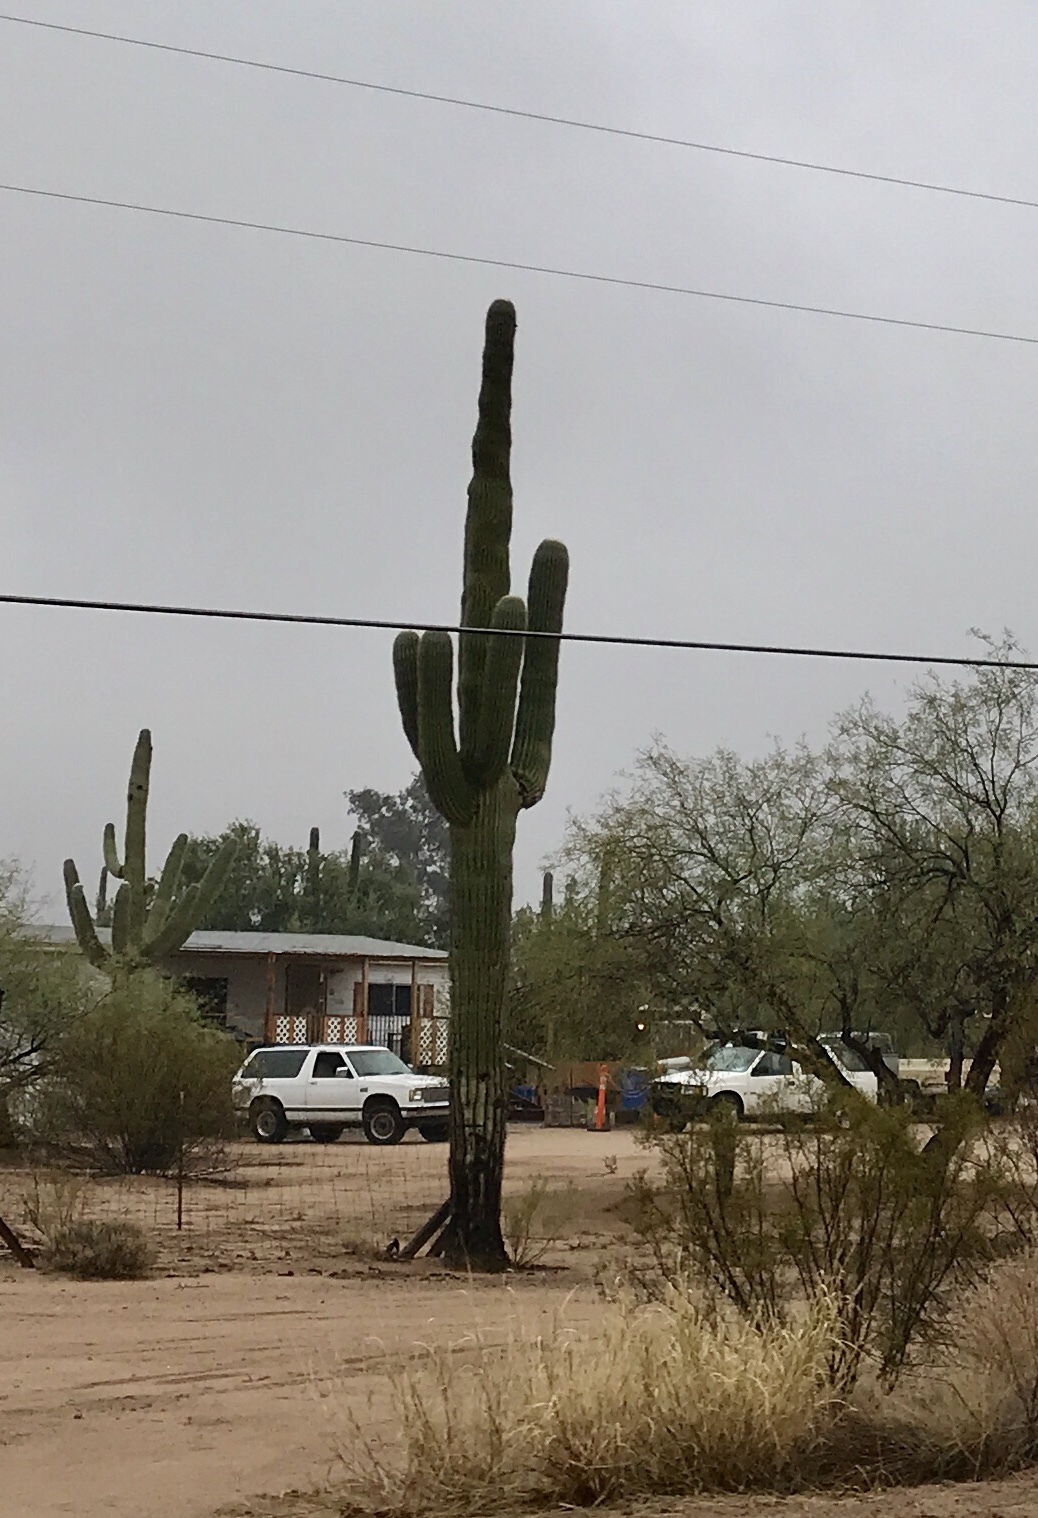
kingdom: Plantae
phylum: Tracheophyta
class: Magnoliopsida
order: Caryophyllales
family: Cactaceae
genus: Carnegiea
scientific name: Carnegiea gigantea
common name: Saguaro
